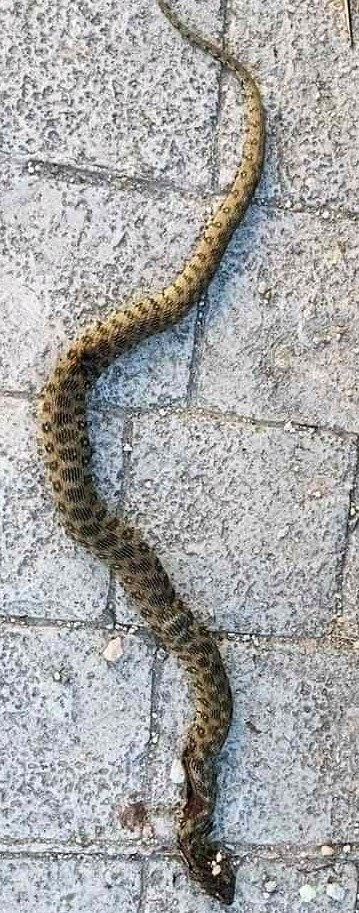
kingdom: Animalia
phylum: Chordata
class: Squamata
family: Colubridae
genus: Natrix
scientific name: Natrix maura
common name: Viperine water snake
